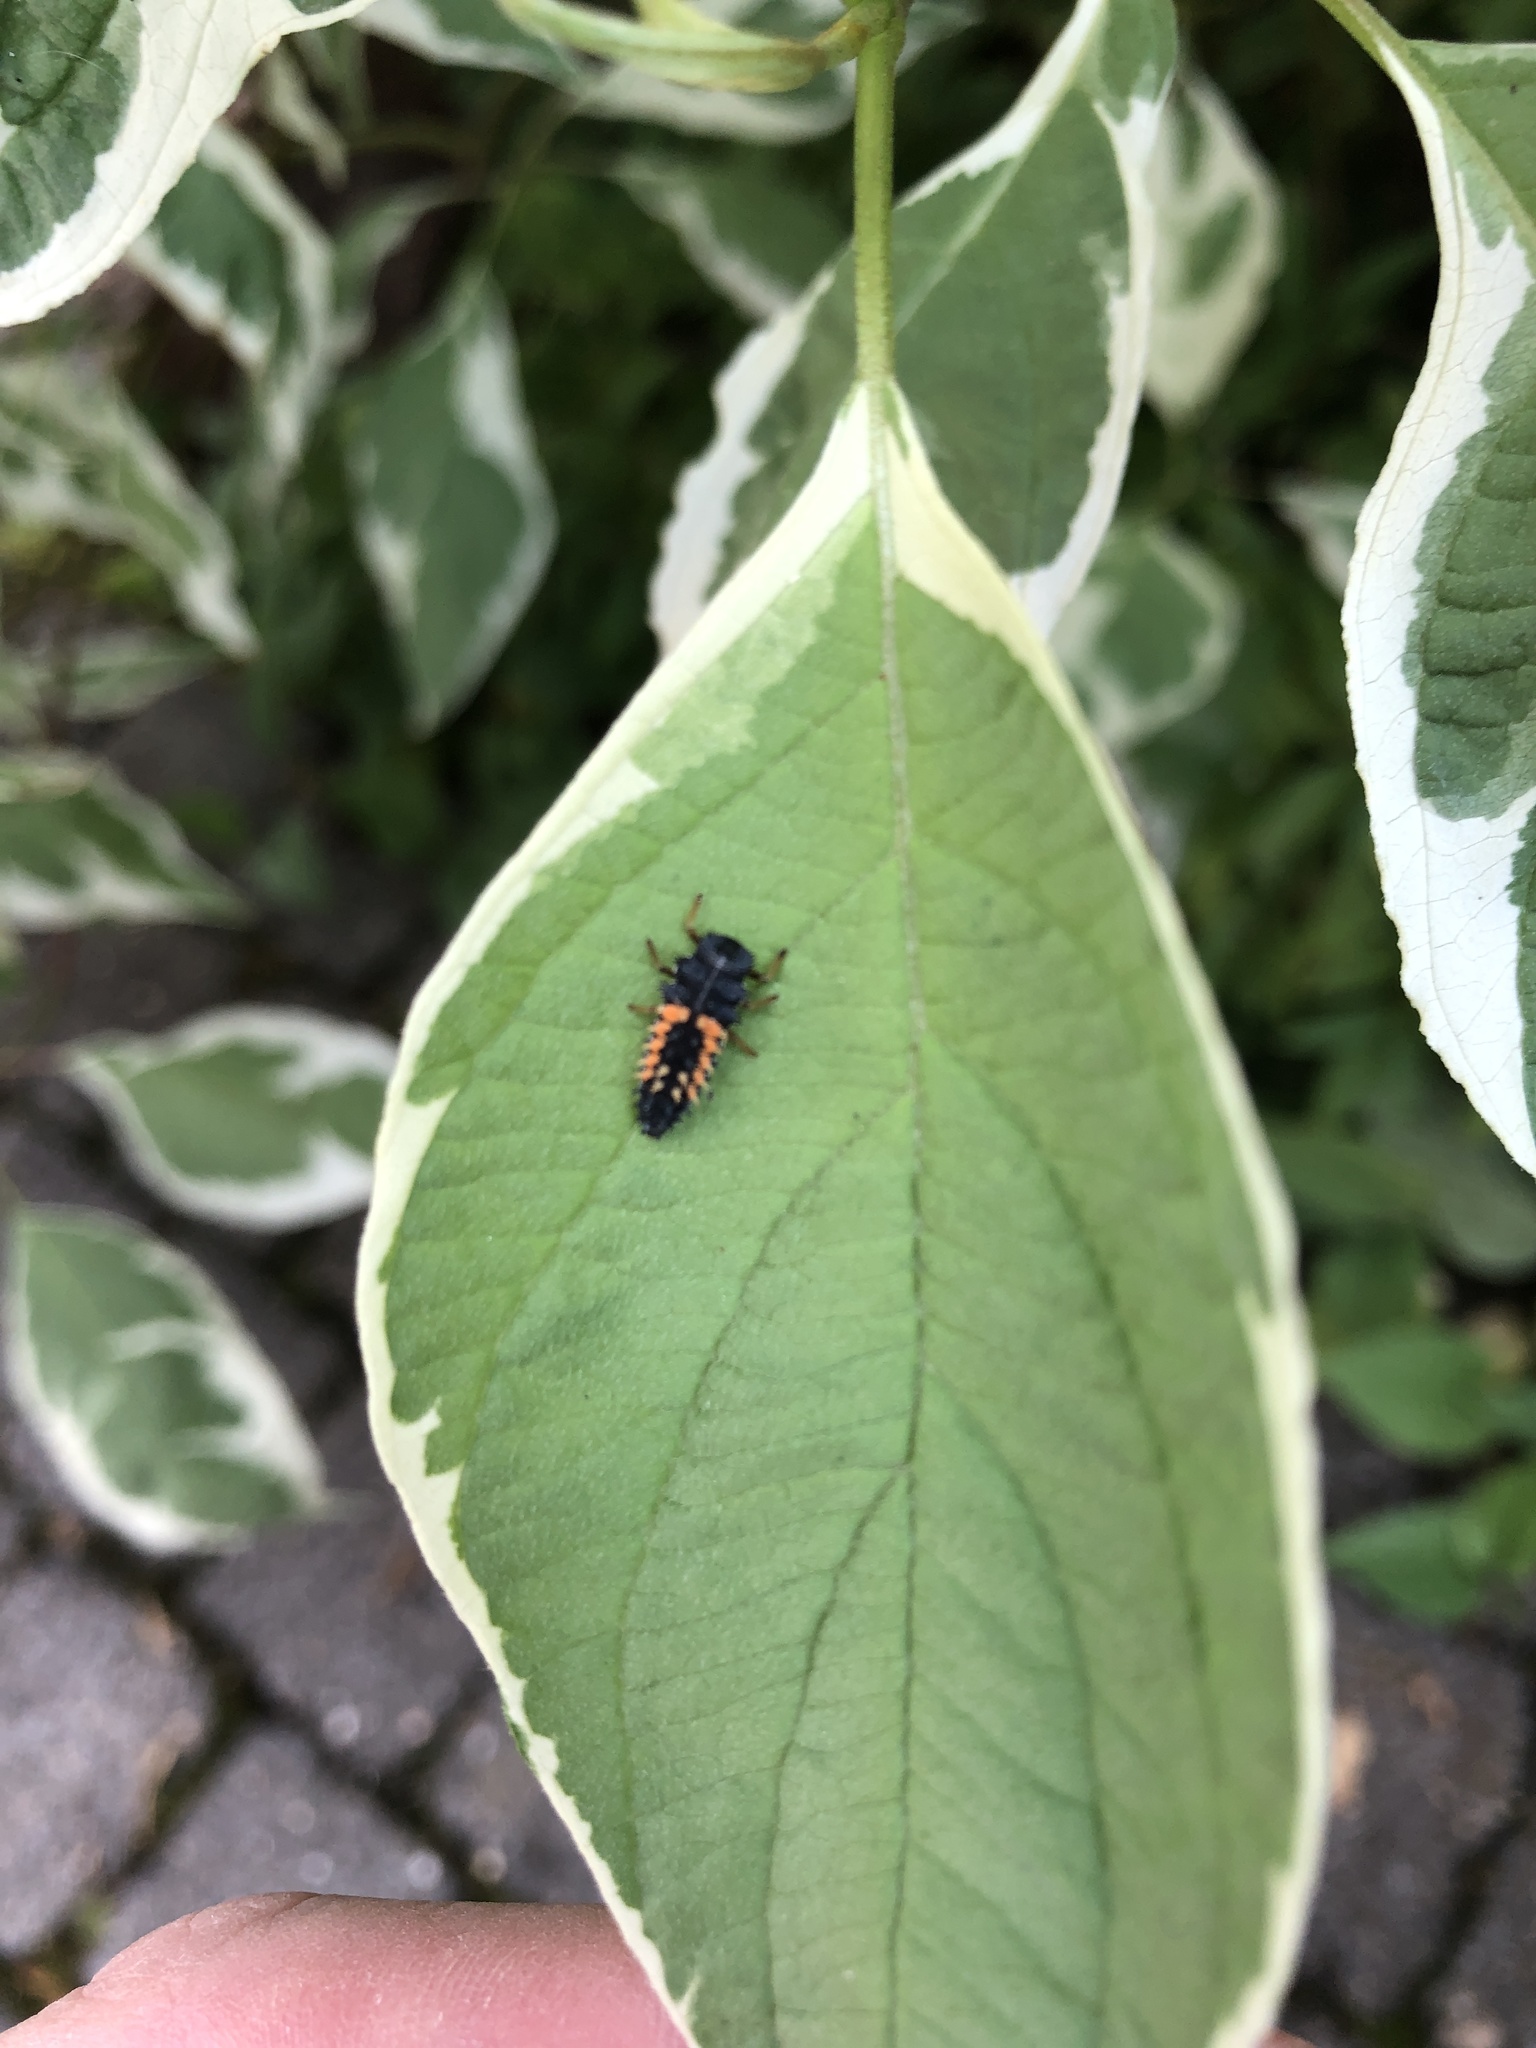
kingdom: Animalia
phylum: Arthropoda
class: Insecta
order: Coleoptera
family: Coccinellidae
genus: Harmonia
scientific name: Harmonia axyridis
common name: Harlequin ladybird
